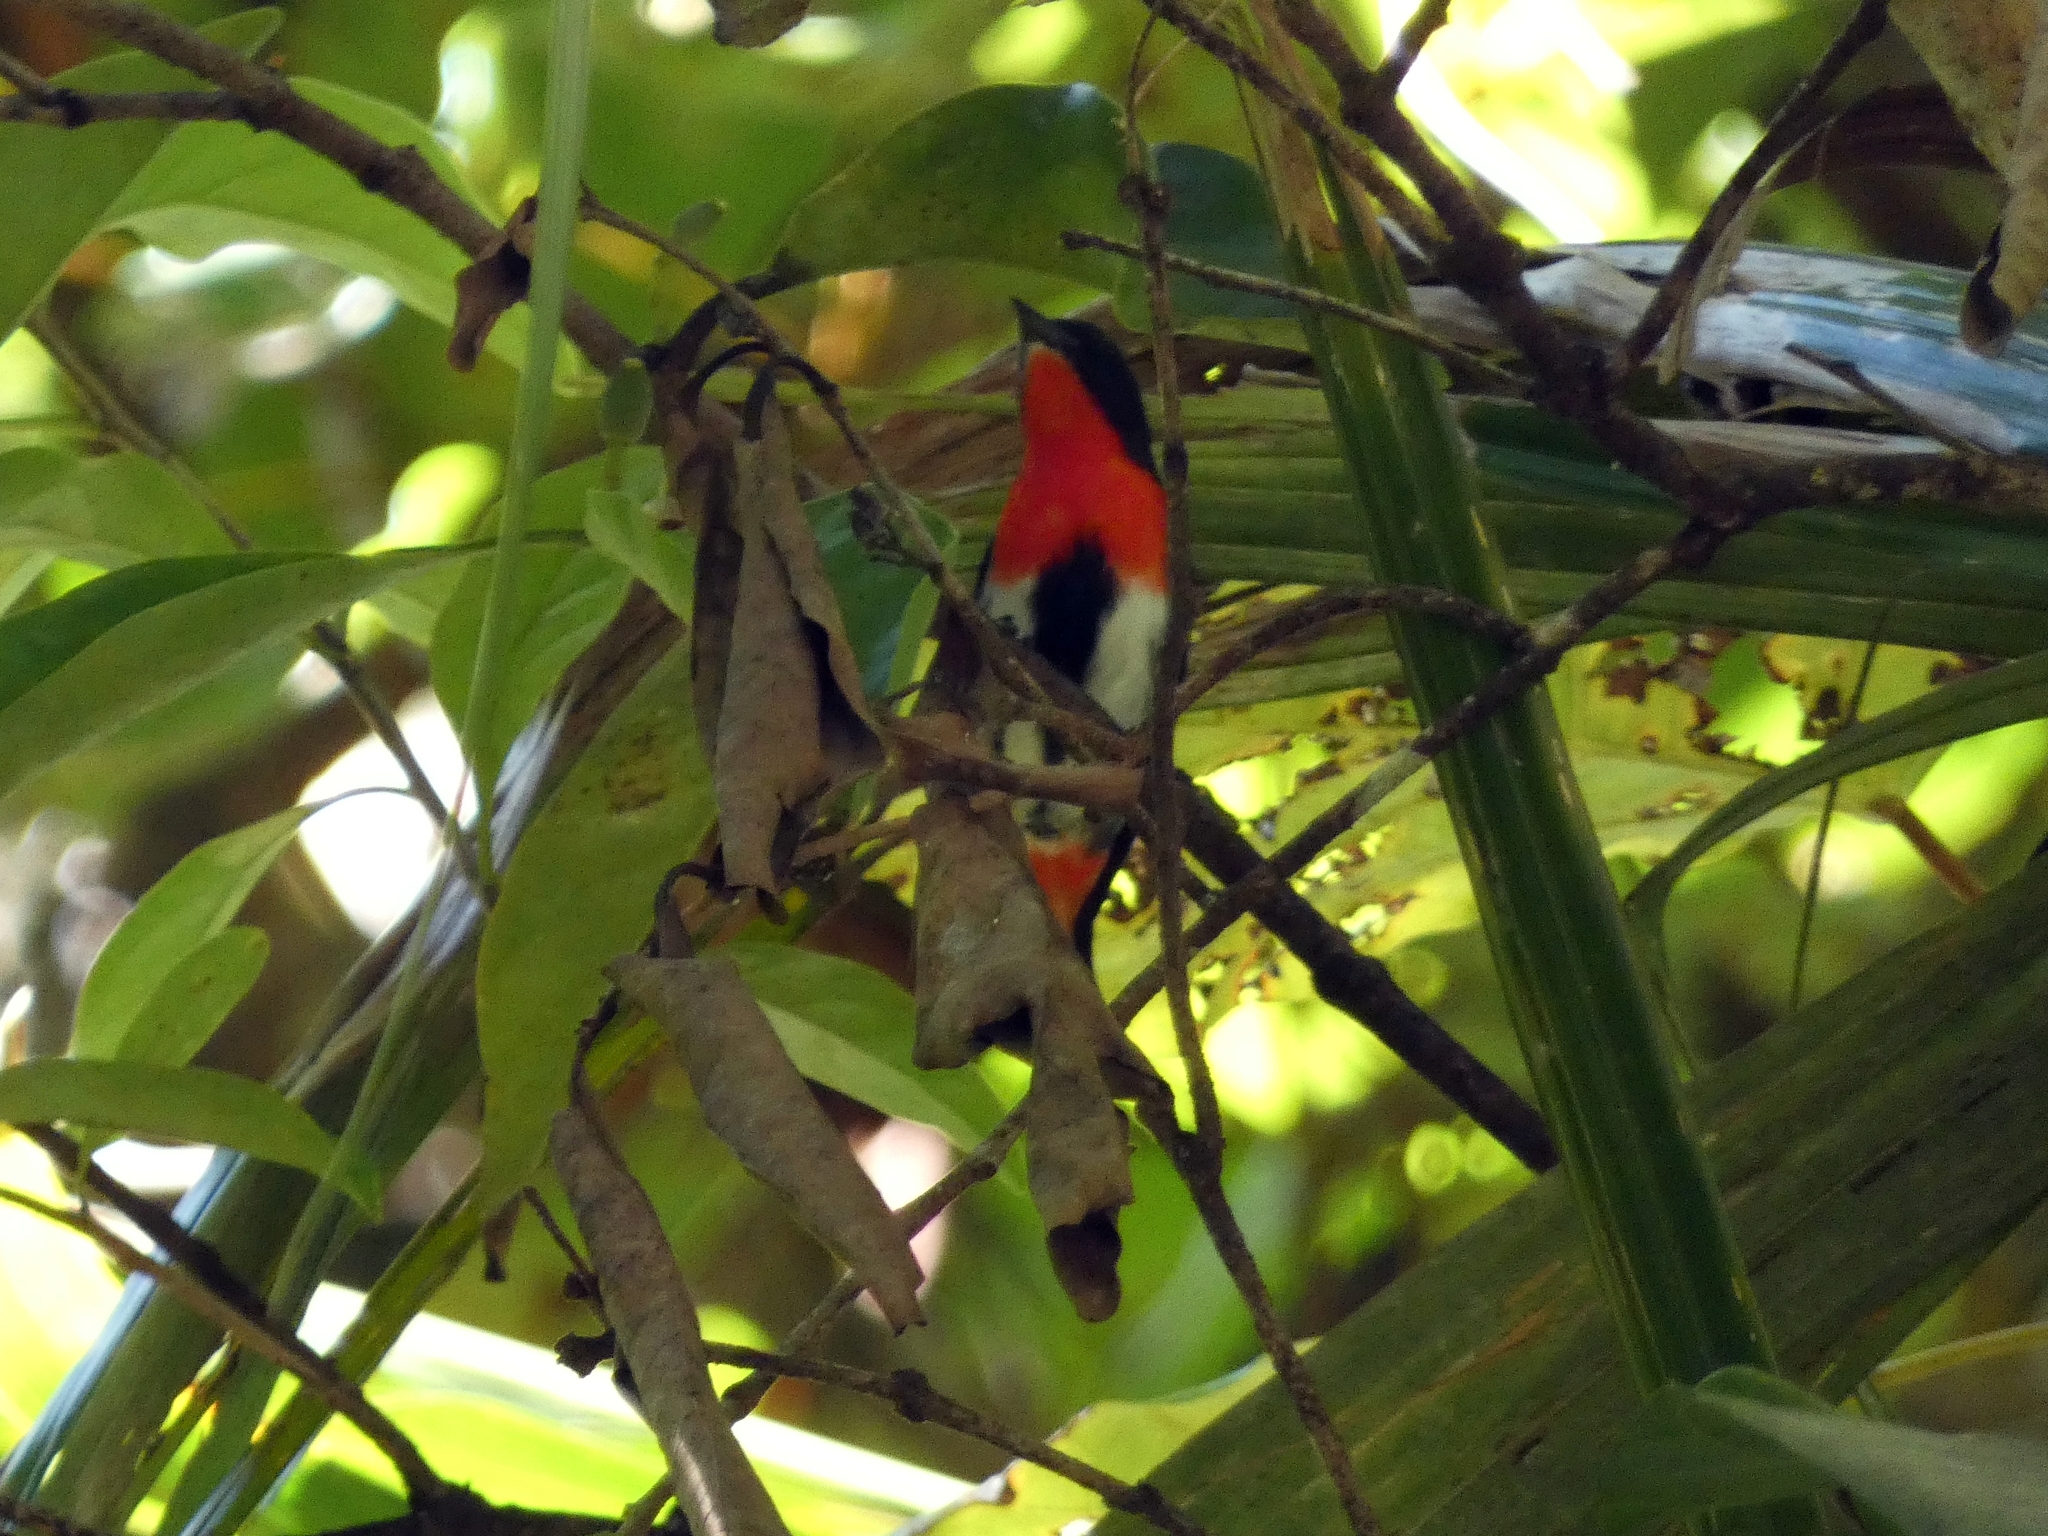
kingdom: Animalia
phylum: Chordata
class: Aves
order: Passeriformes
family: Dicaeidae
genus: Dicaeum
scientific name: Dicaeum hirundinaceum
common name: Mistletoebird
